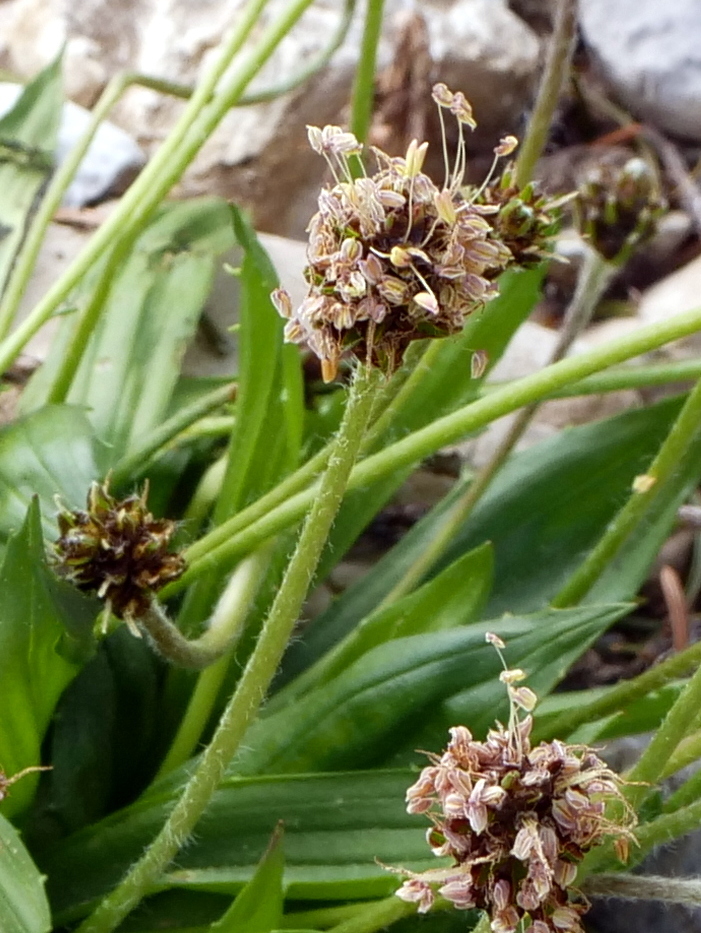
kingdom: Plantae
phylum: Tracheophyta
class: Magnoliopsida
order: Lamiales
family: Plantaginaceae
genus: Plantago
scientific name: Plantago atrata
